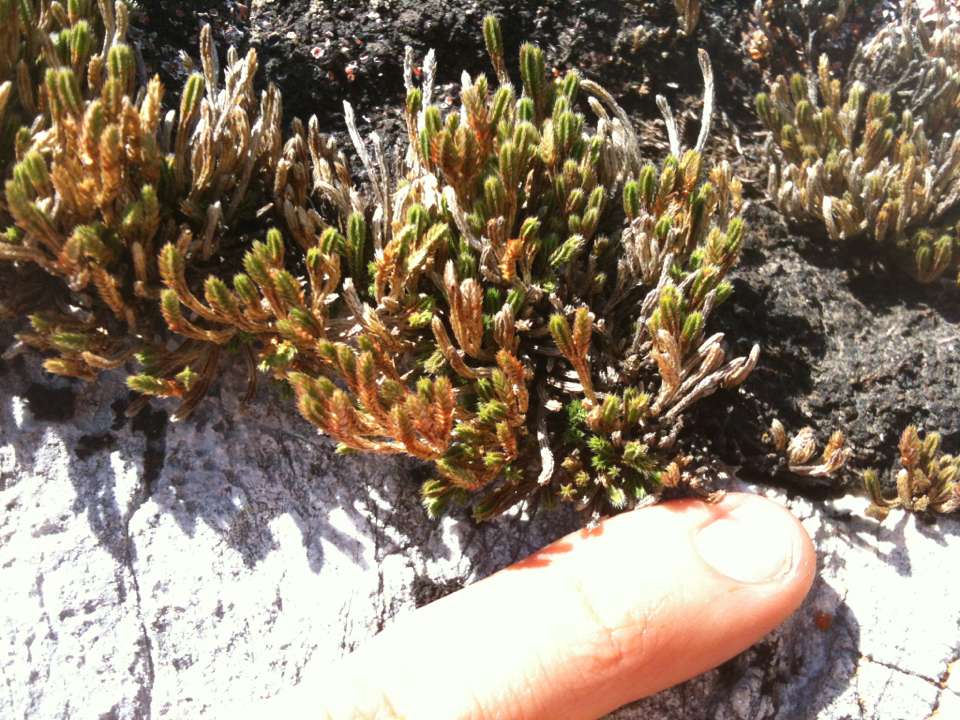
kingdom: Plantae
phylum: Tracheophyta
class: Lycopodiopsida
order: Selaginellales
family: Selaginellaceae
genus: Selaginella
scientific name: Selaginella bigelovii
